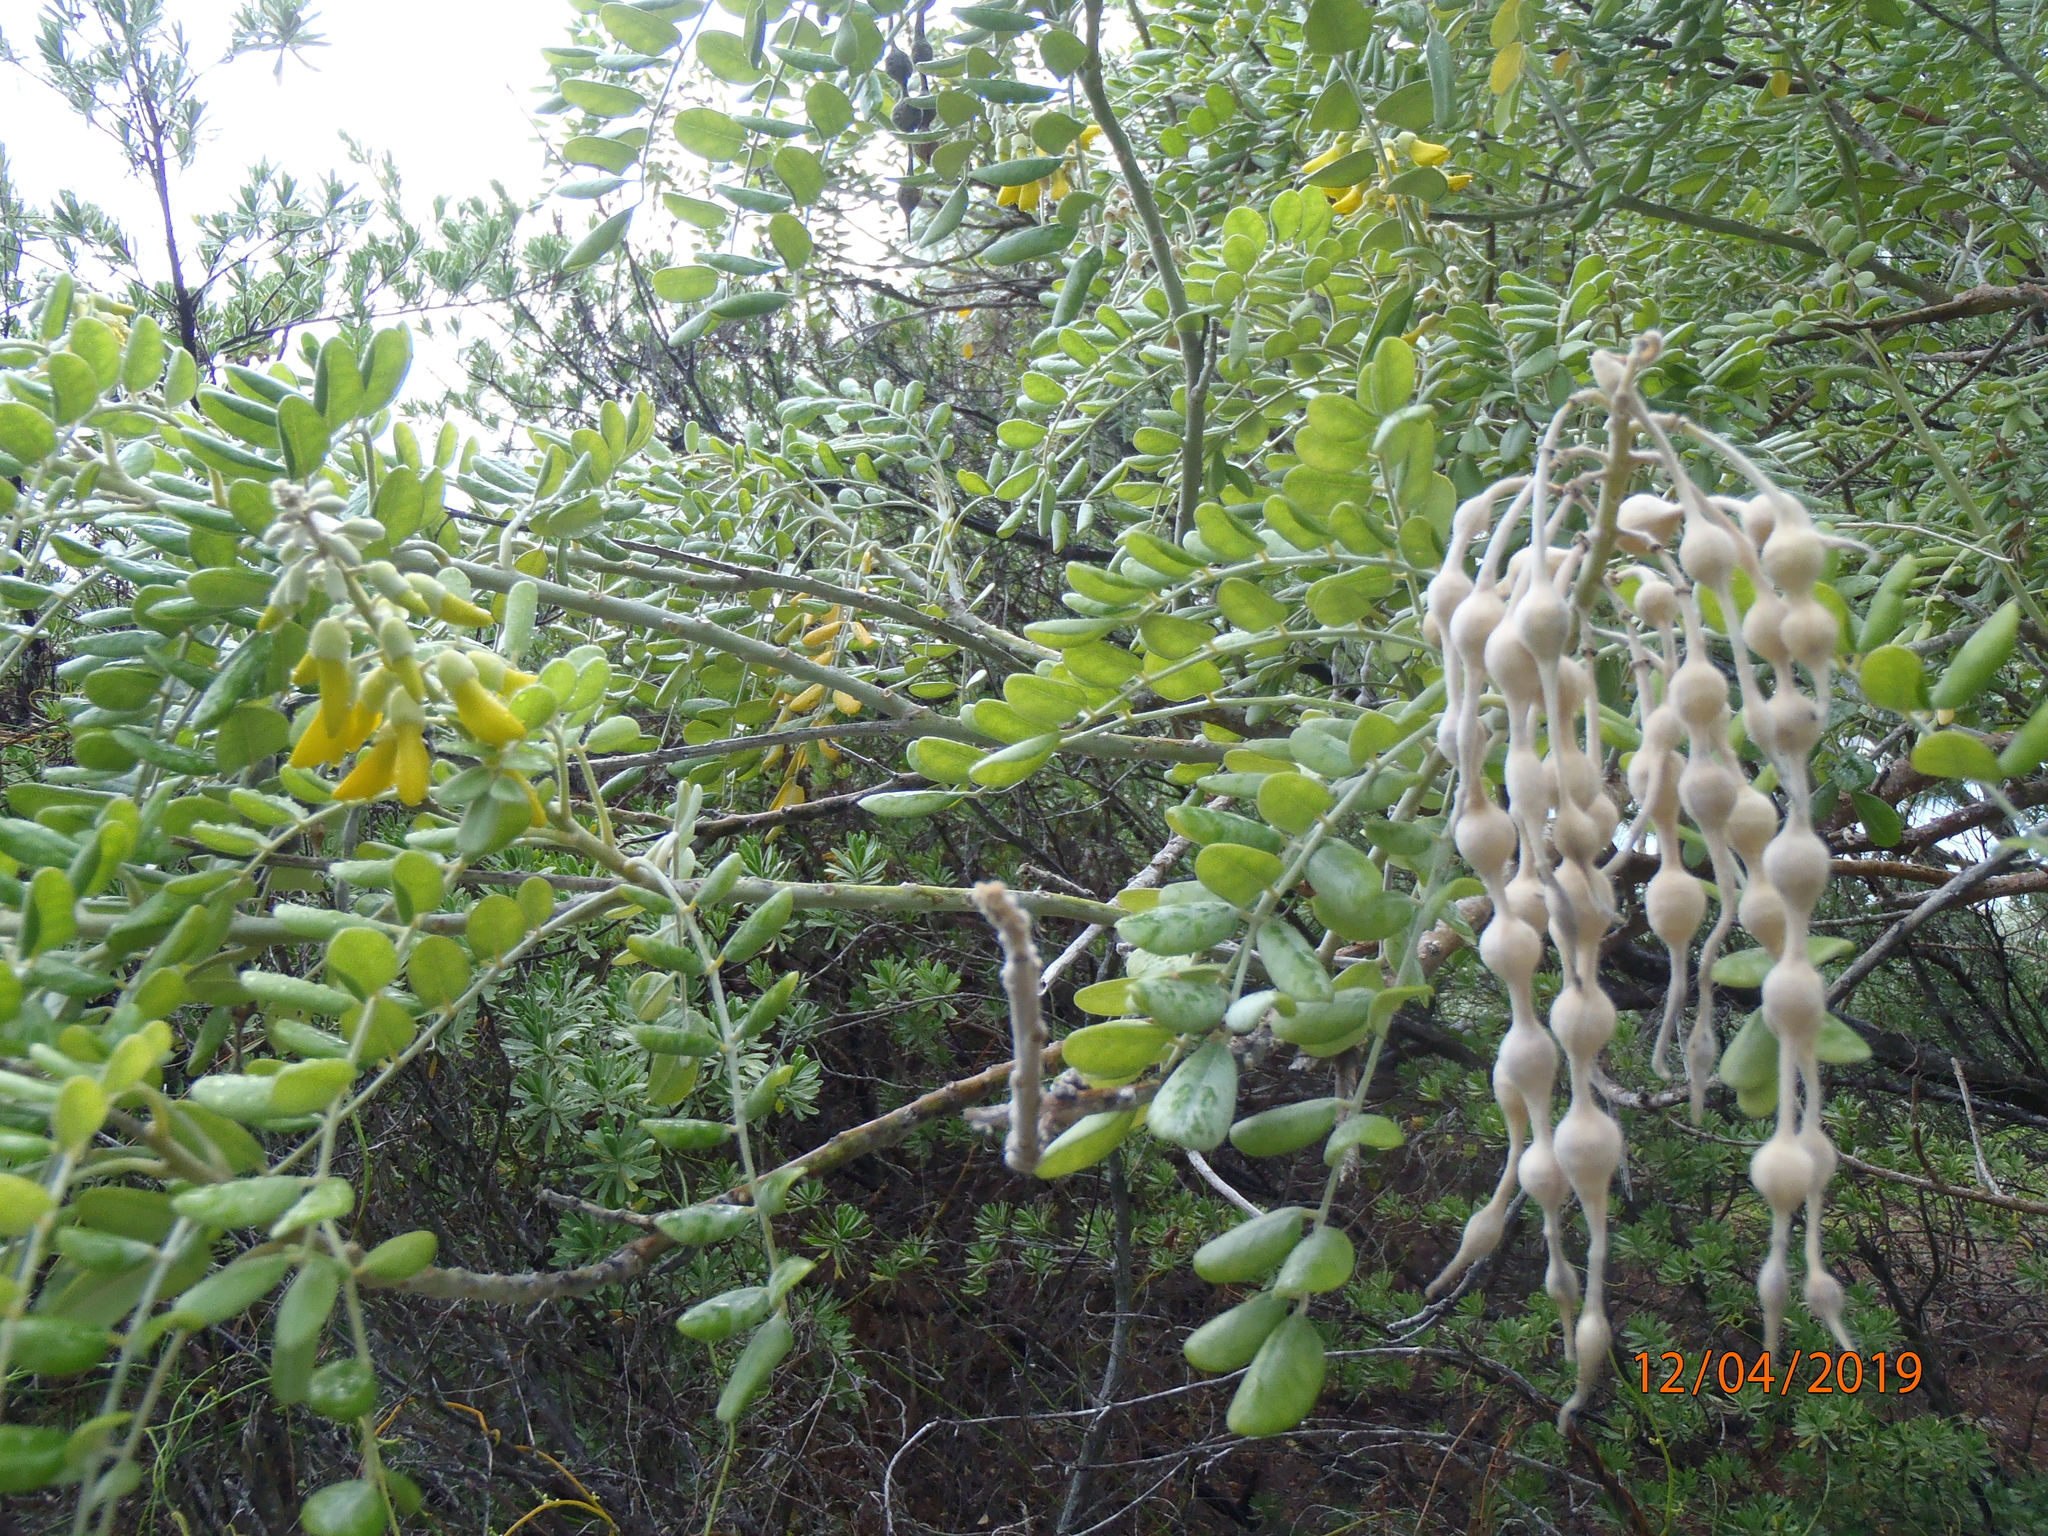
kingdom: Plantae
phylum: Tracheophyta
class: Magnoliopsida
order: Fabales
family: Fabaceae
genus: Sophora
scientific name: Sophora tomentosa
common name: Yellow necklacepod
